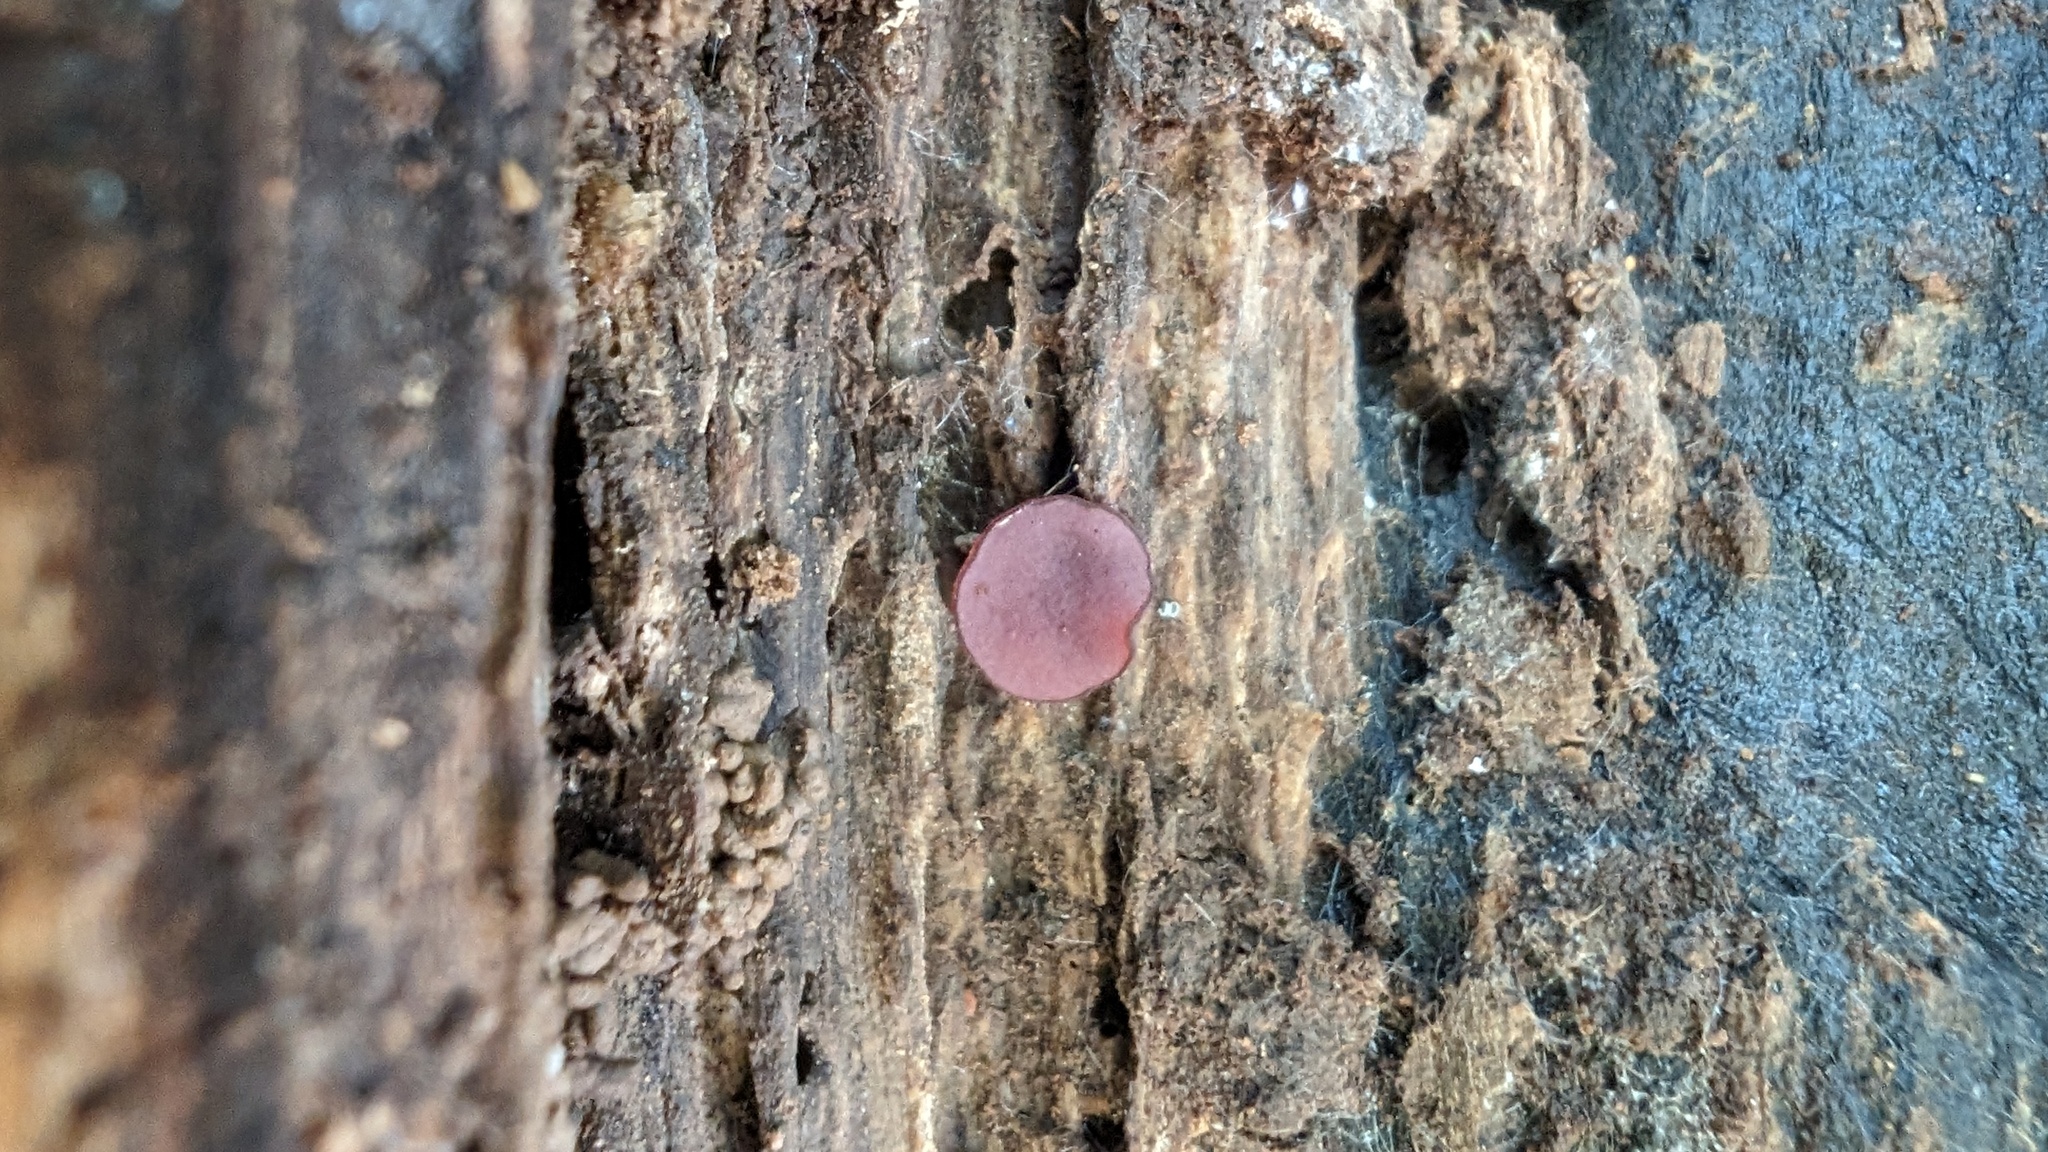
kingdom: Fungi
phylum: Ascomycota
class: Leotiomycetes
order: Helotiales
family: Gelatinodiscaceae
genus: Ascocoryne
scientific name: Ascocoryne cylichnium
